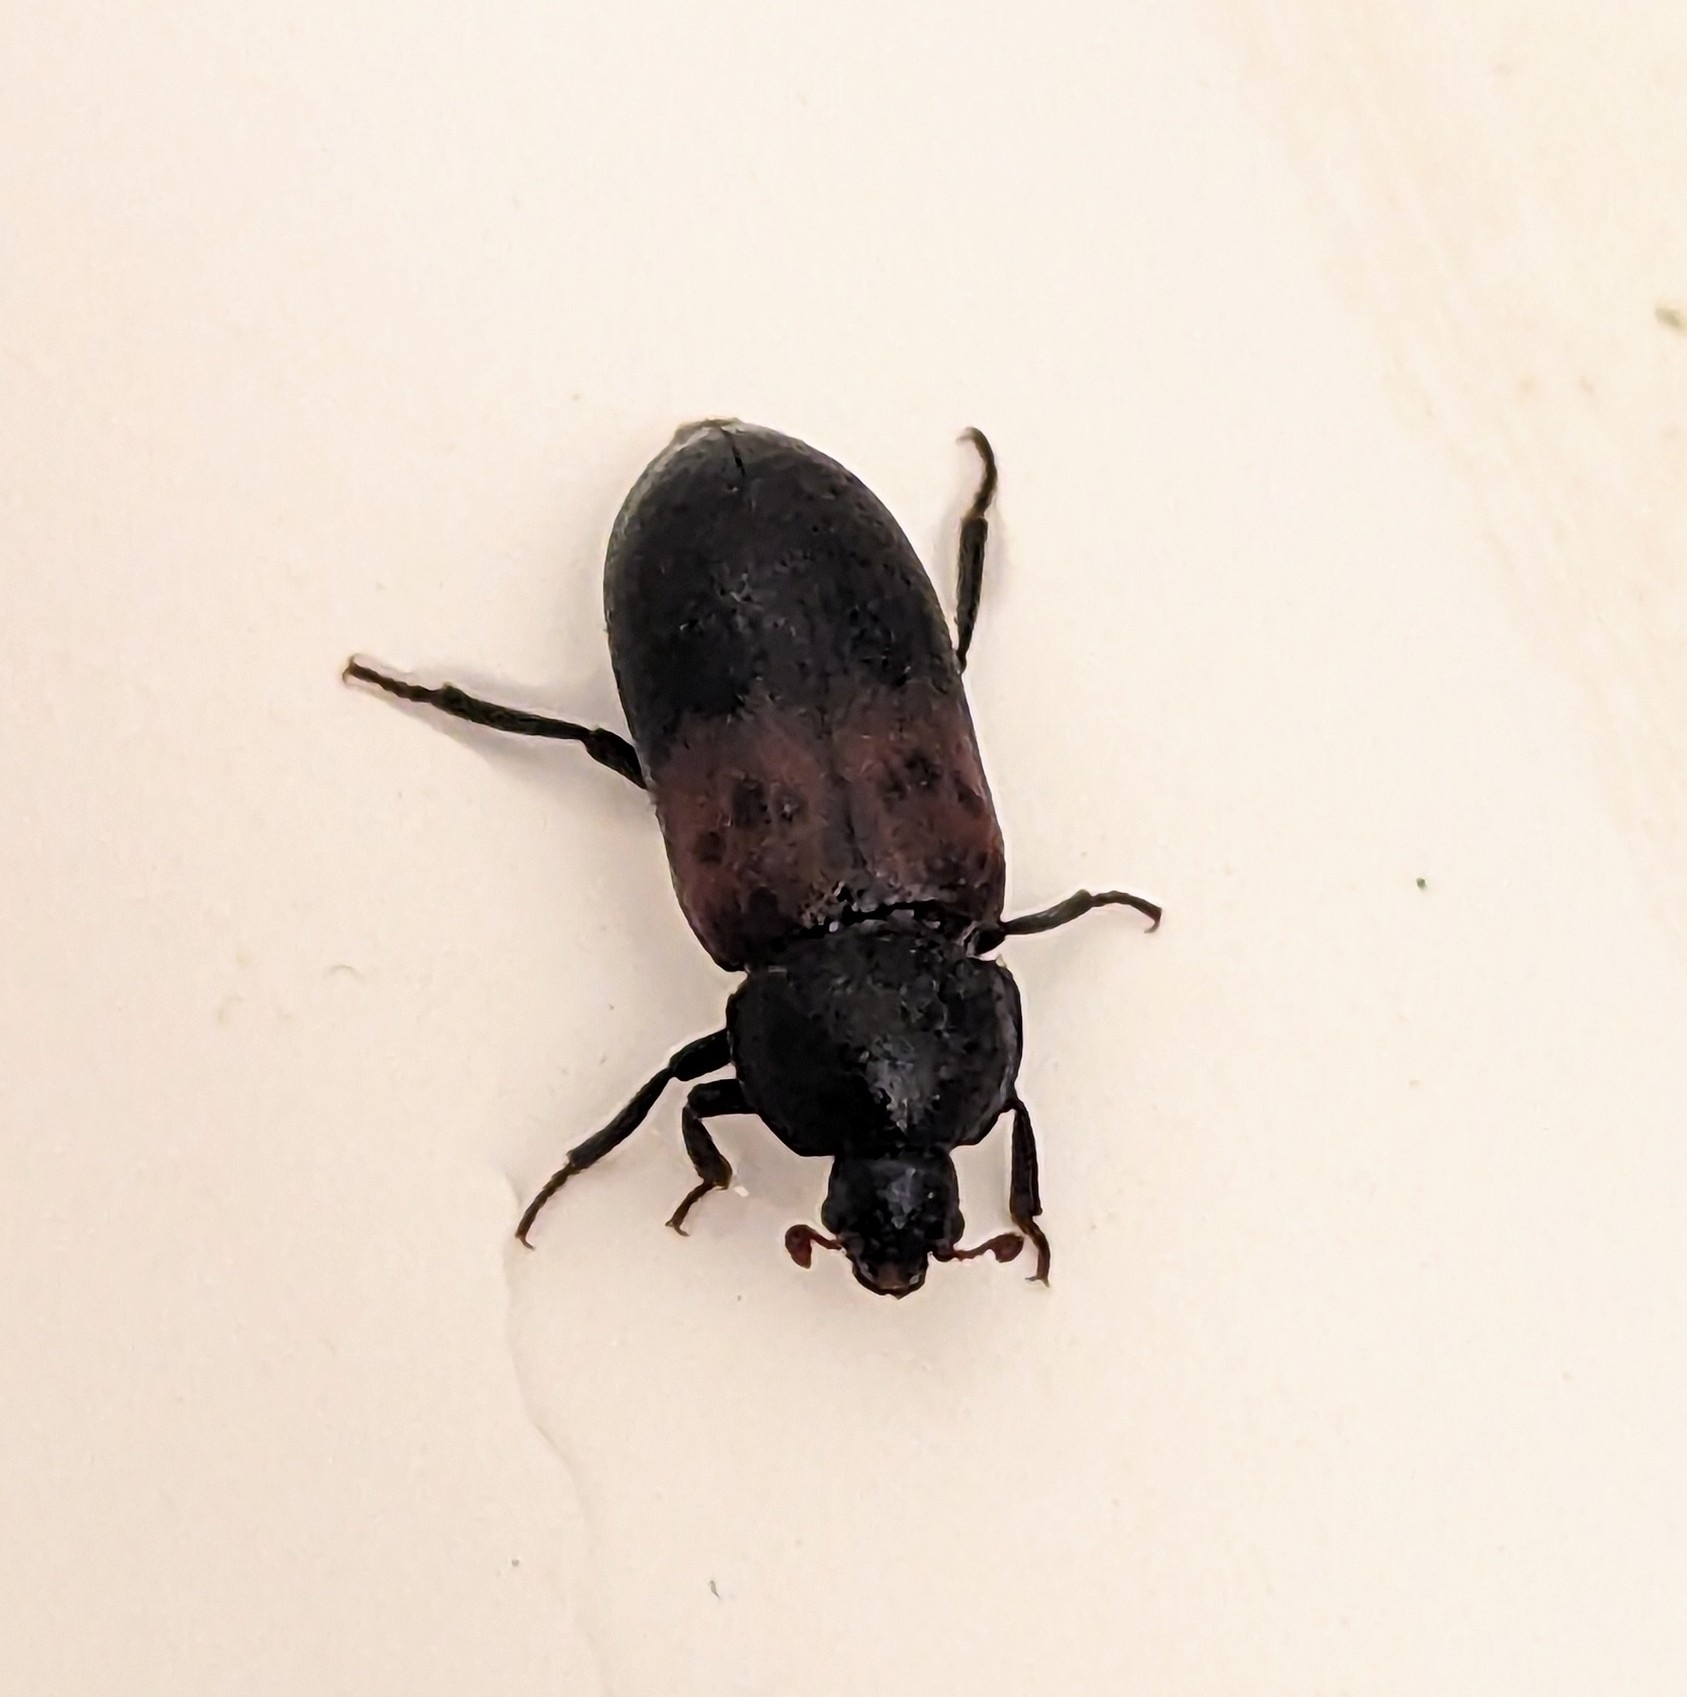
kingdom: Animalia
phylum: Arthropoda
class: Insecta
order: Coleoptera
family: Dermestidae
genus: Dermestes
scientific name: Dermestes lardarius
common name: Larder beetle
